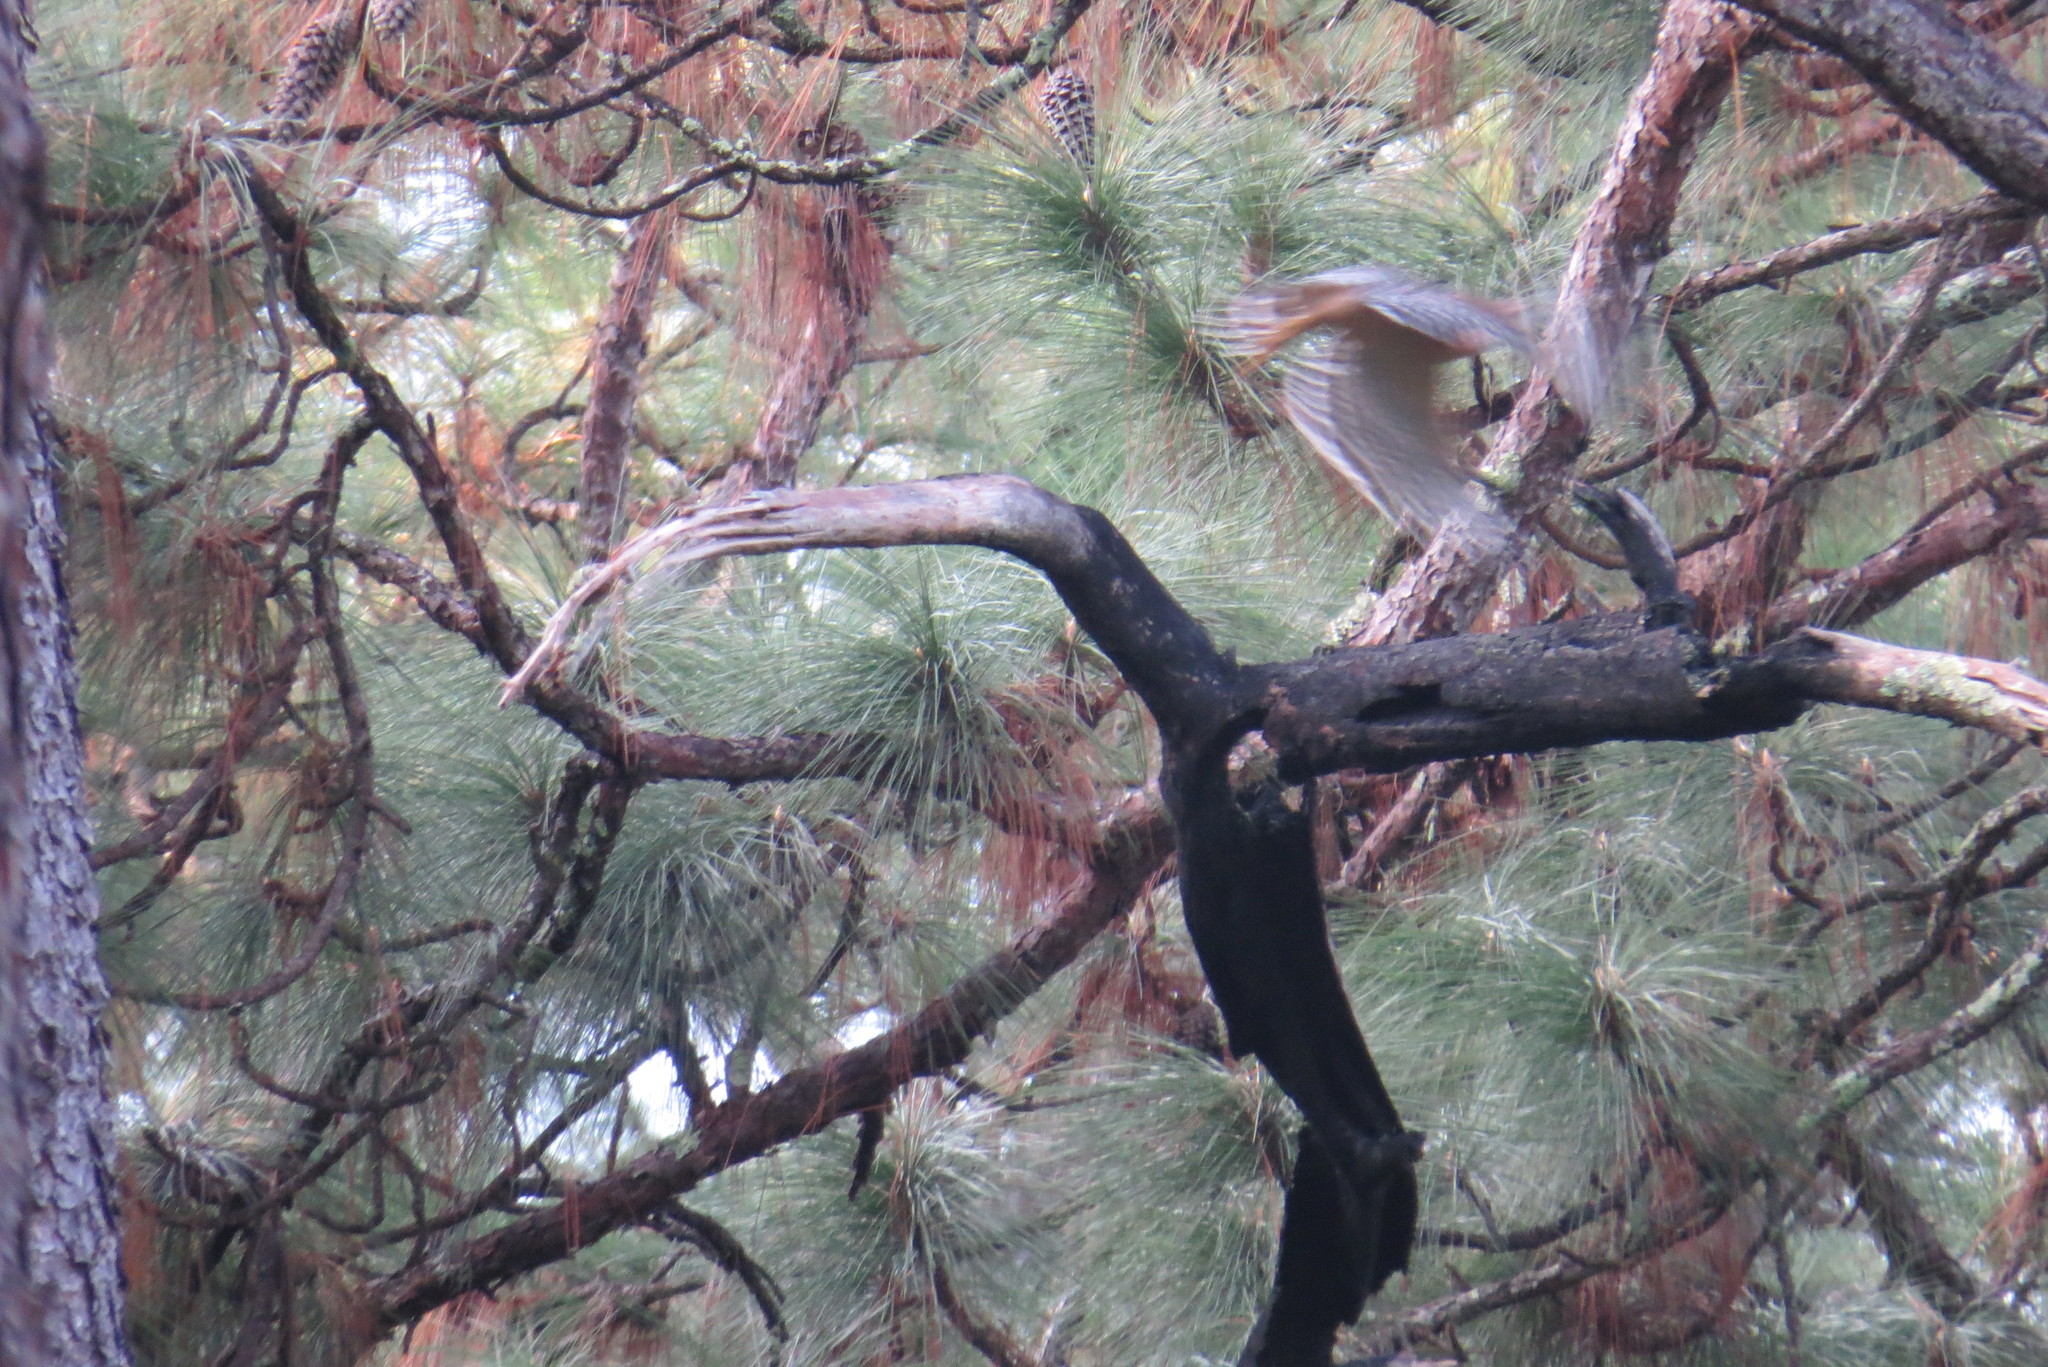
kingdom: Animalia
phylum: Chordata
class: Aves
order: Accipitriformes
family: Accipitridae
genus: Buteo
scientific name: Buteo lineatus
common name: Red-shouldered hawk
